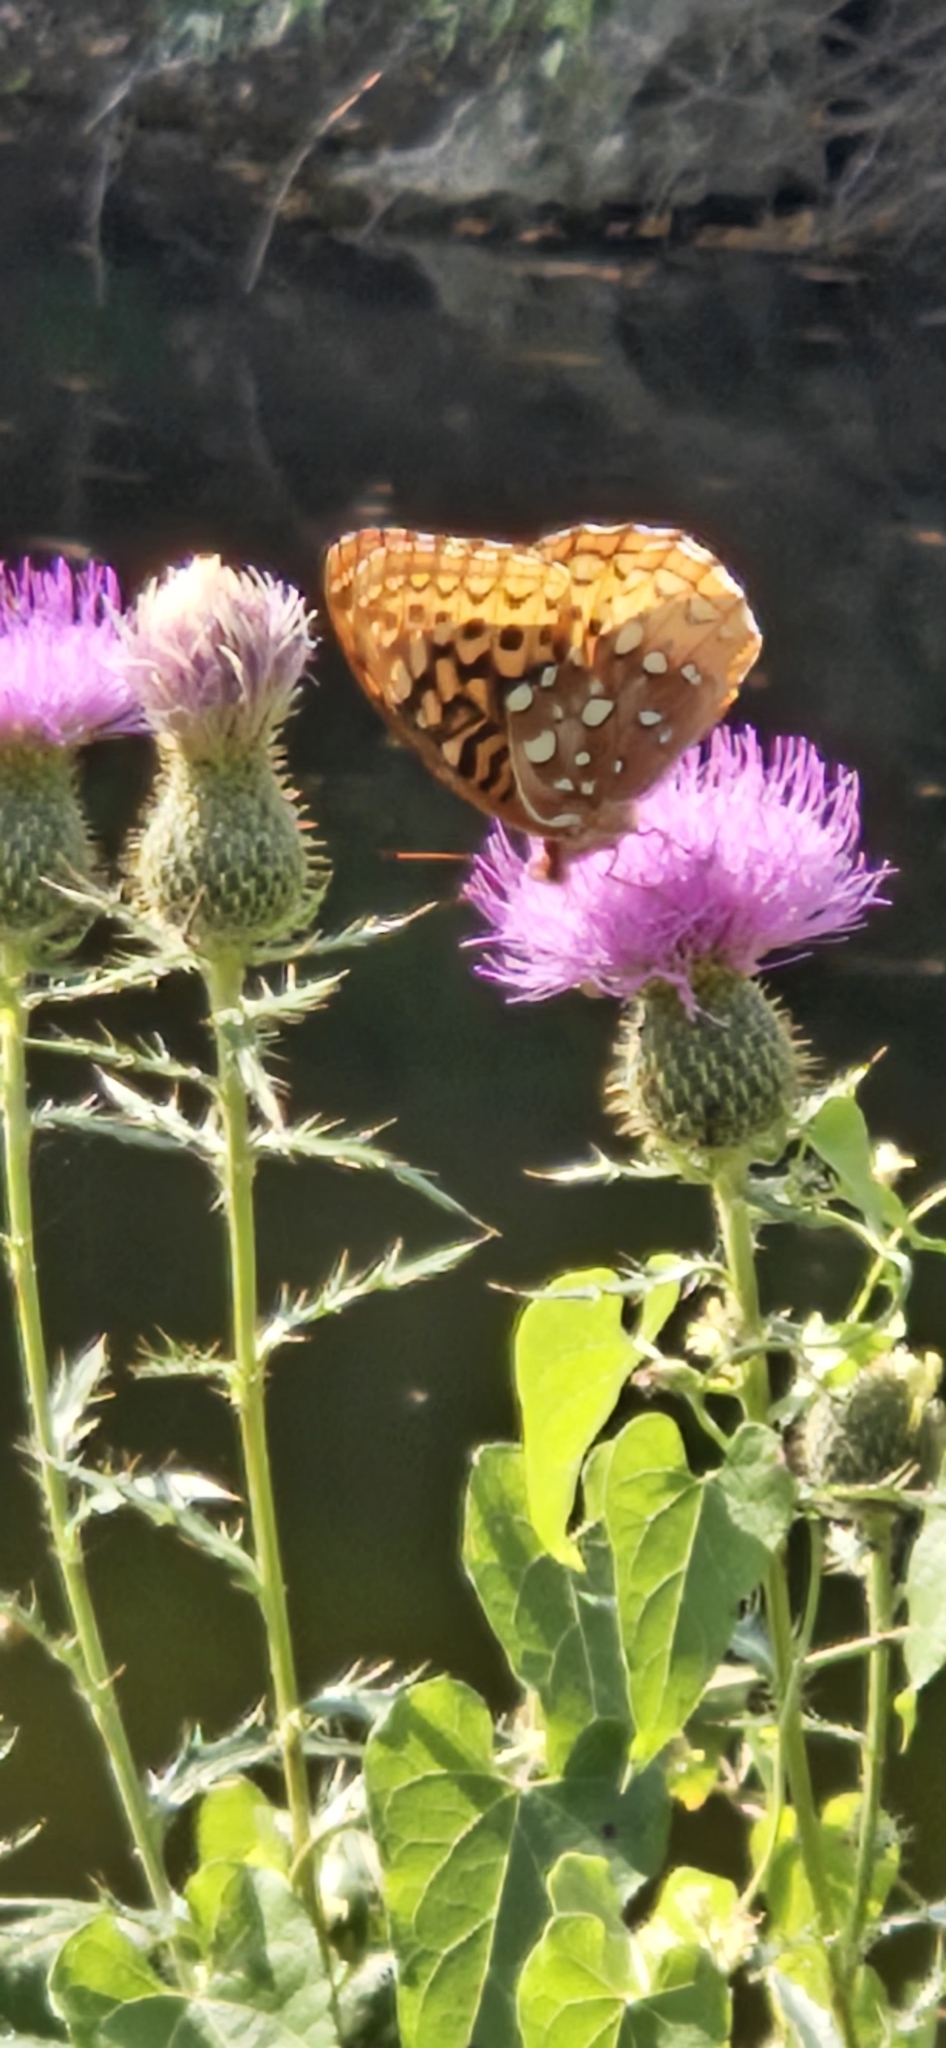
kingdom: Animalia
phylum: Arthropoda
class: Insecta
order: Lepidoptera
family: Nymphalidae
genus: Speyeria
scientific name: Speyeria cybele
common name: Great spangled fritillary
